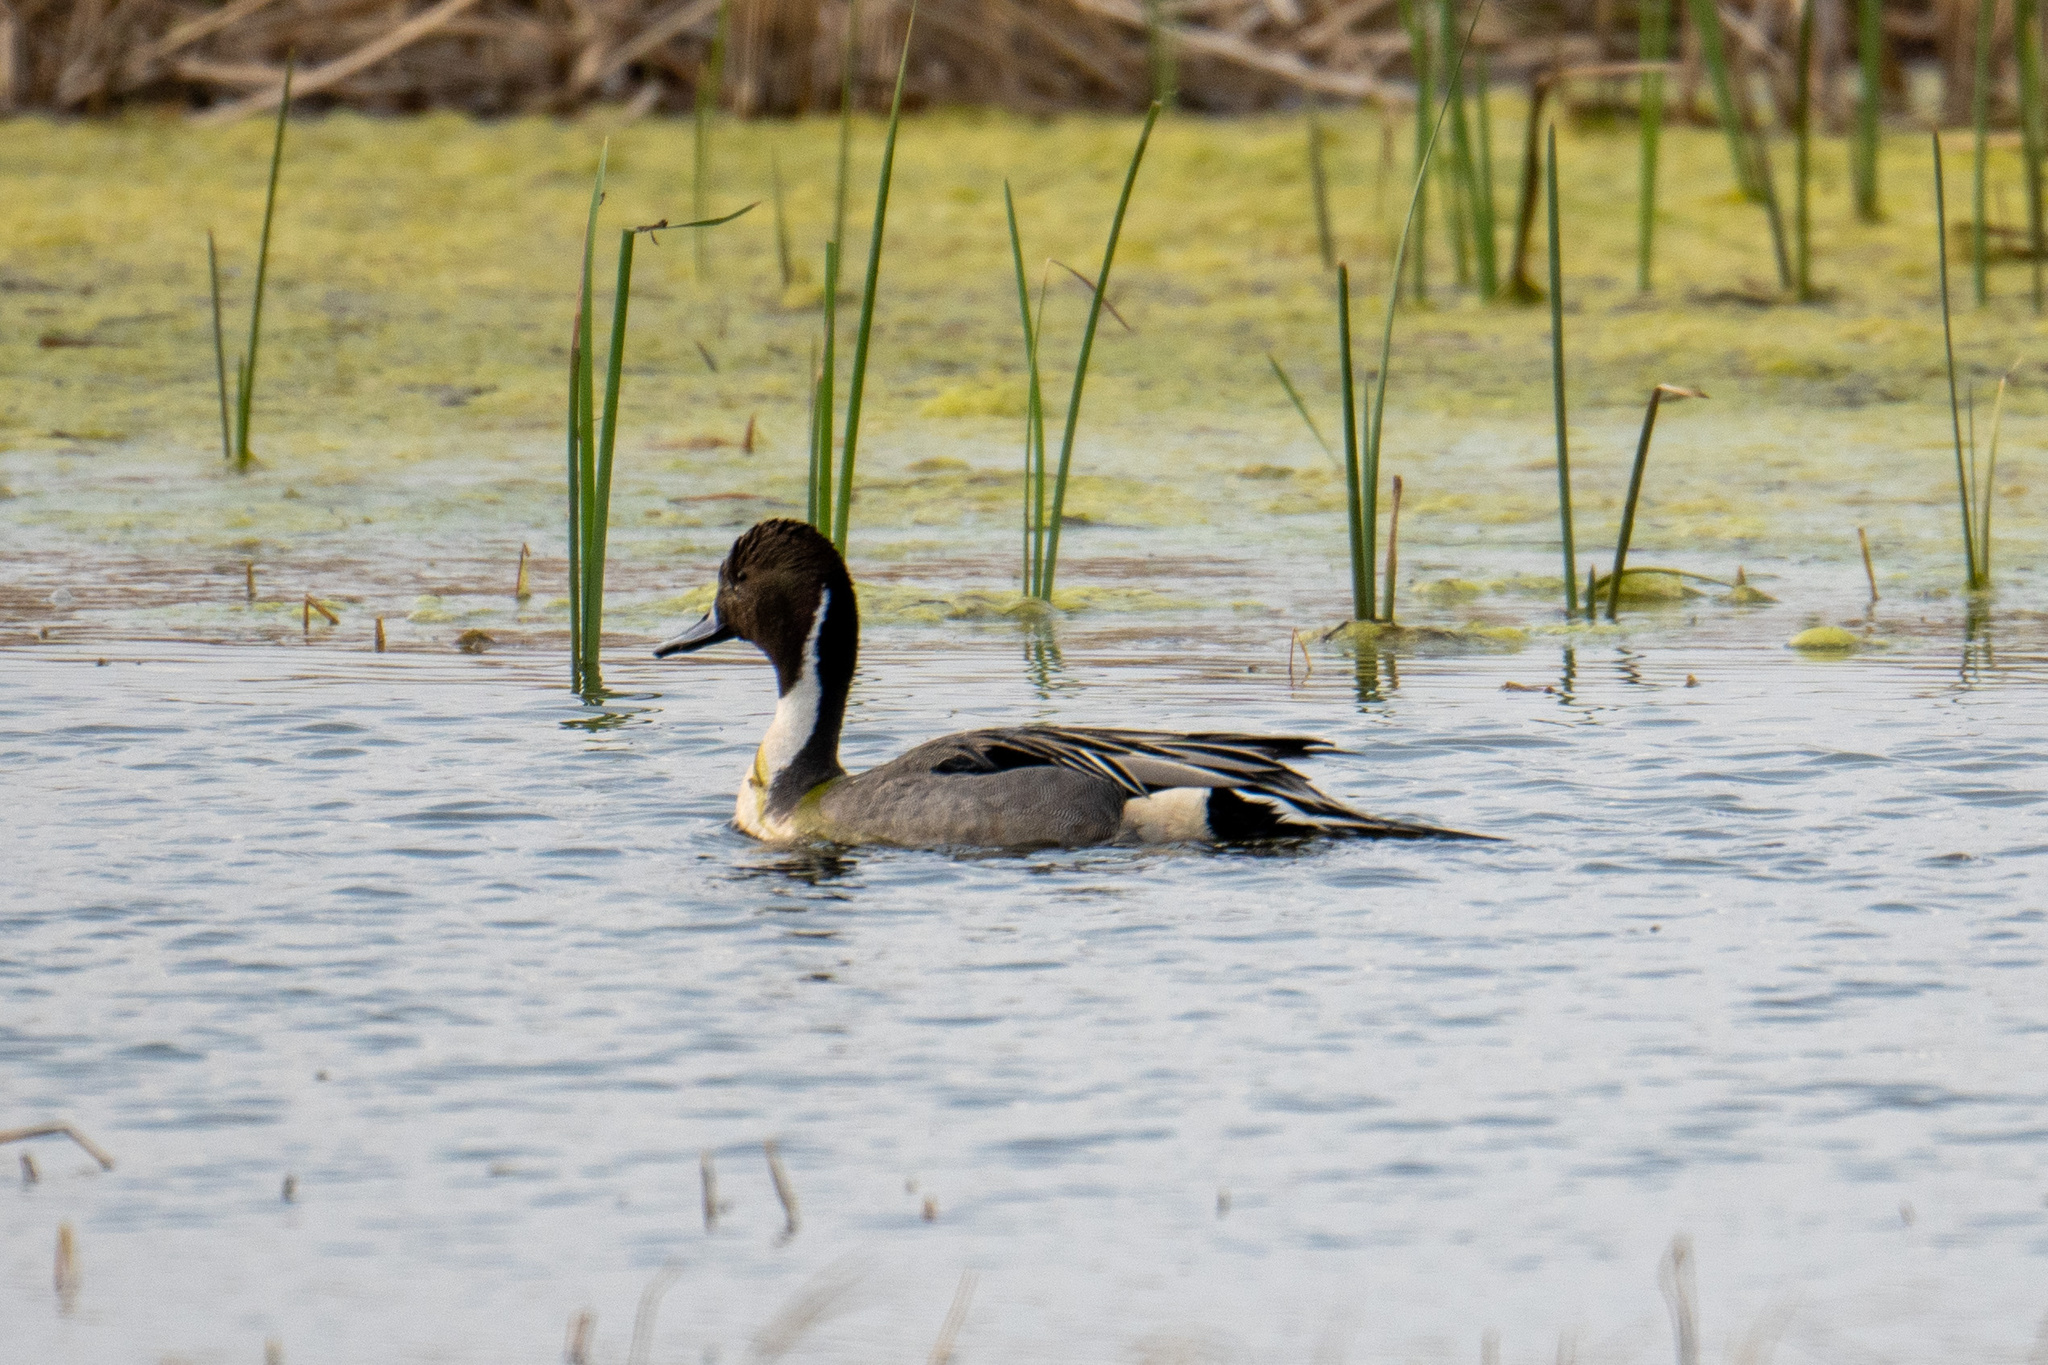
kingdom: Animalia
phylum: Chordata
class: Aves
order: Anseriformes
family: Anatidae
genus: Anas
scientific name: Anas acuta
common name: Northern pintail
